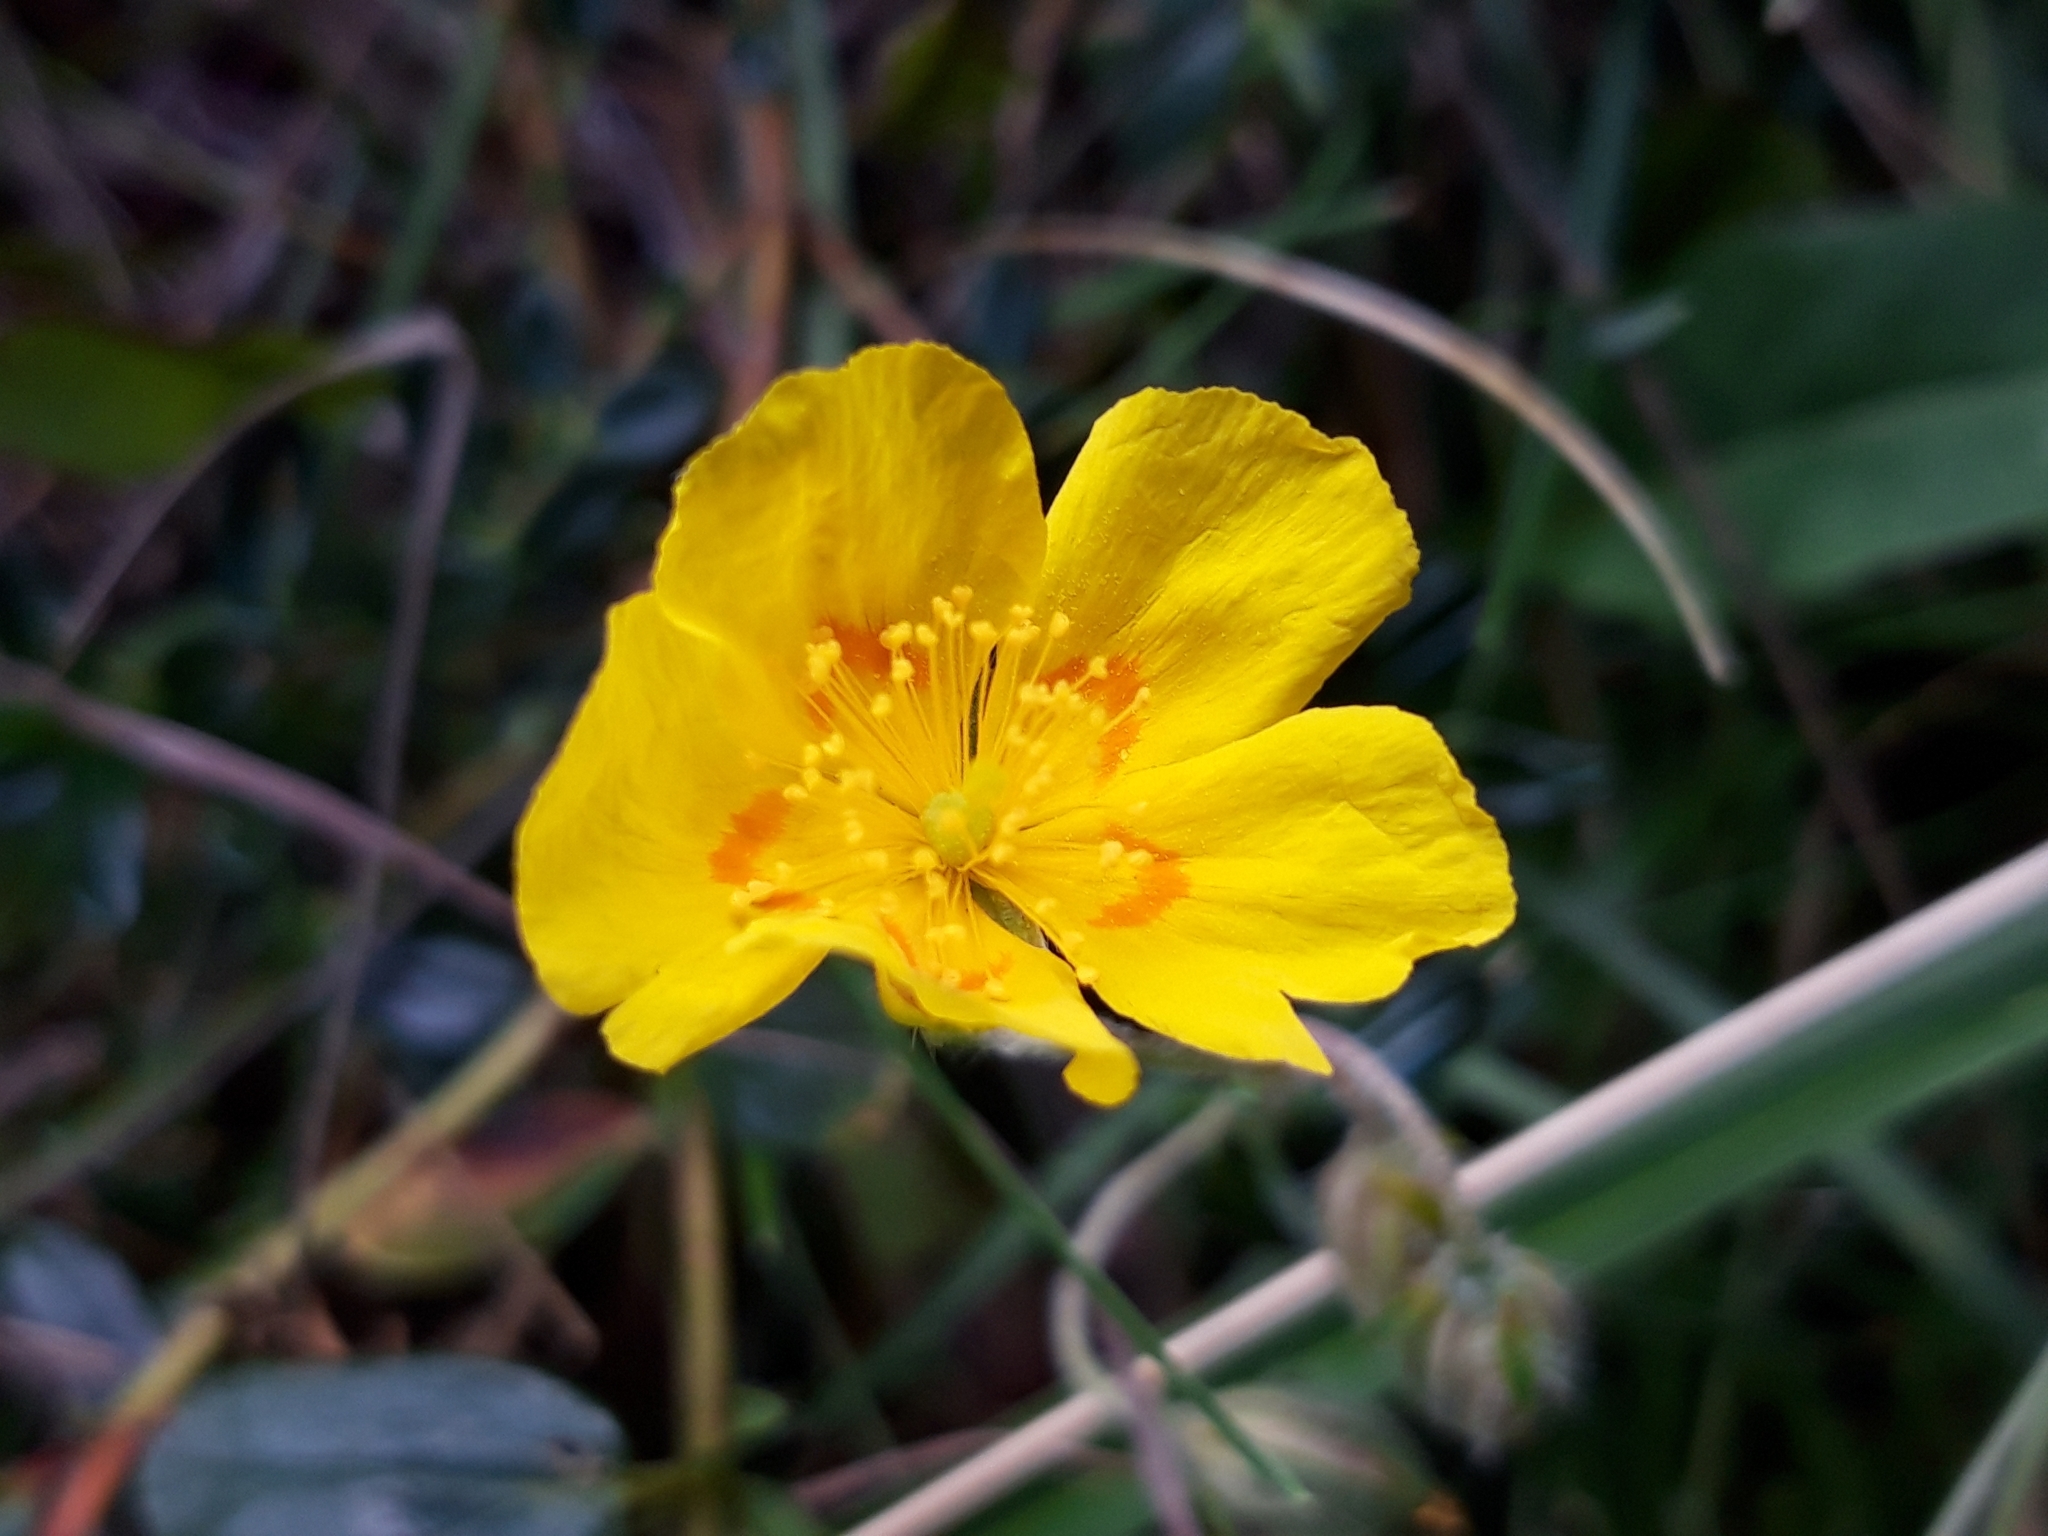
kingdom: Plantae
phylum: Tracheophyta
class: Magnoliopsida
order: Malvales
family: Cistaceae
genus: Helianthemum
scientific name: Helianthemum nummularium
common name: Common rock-rose
